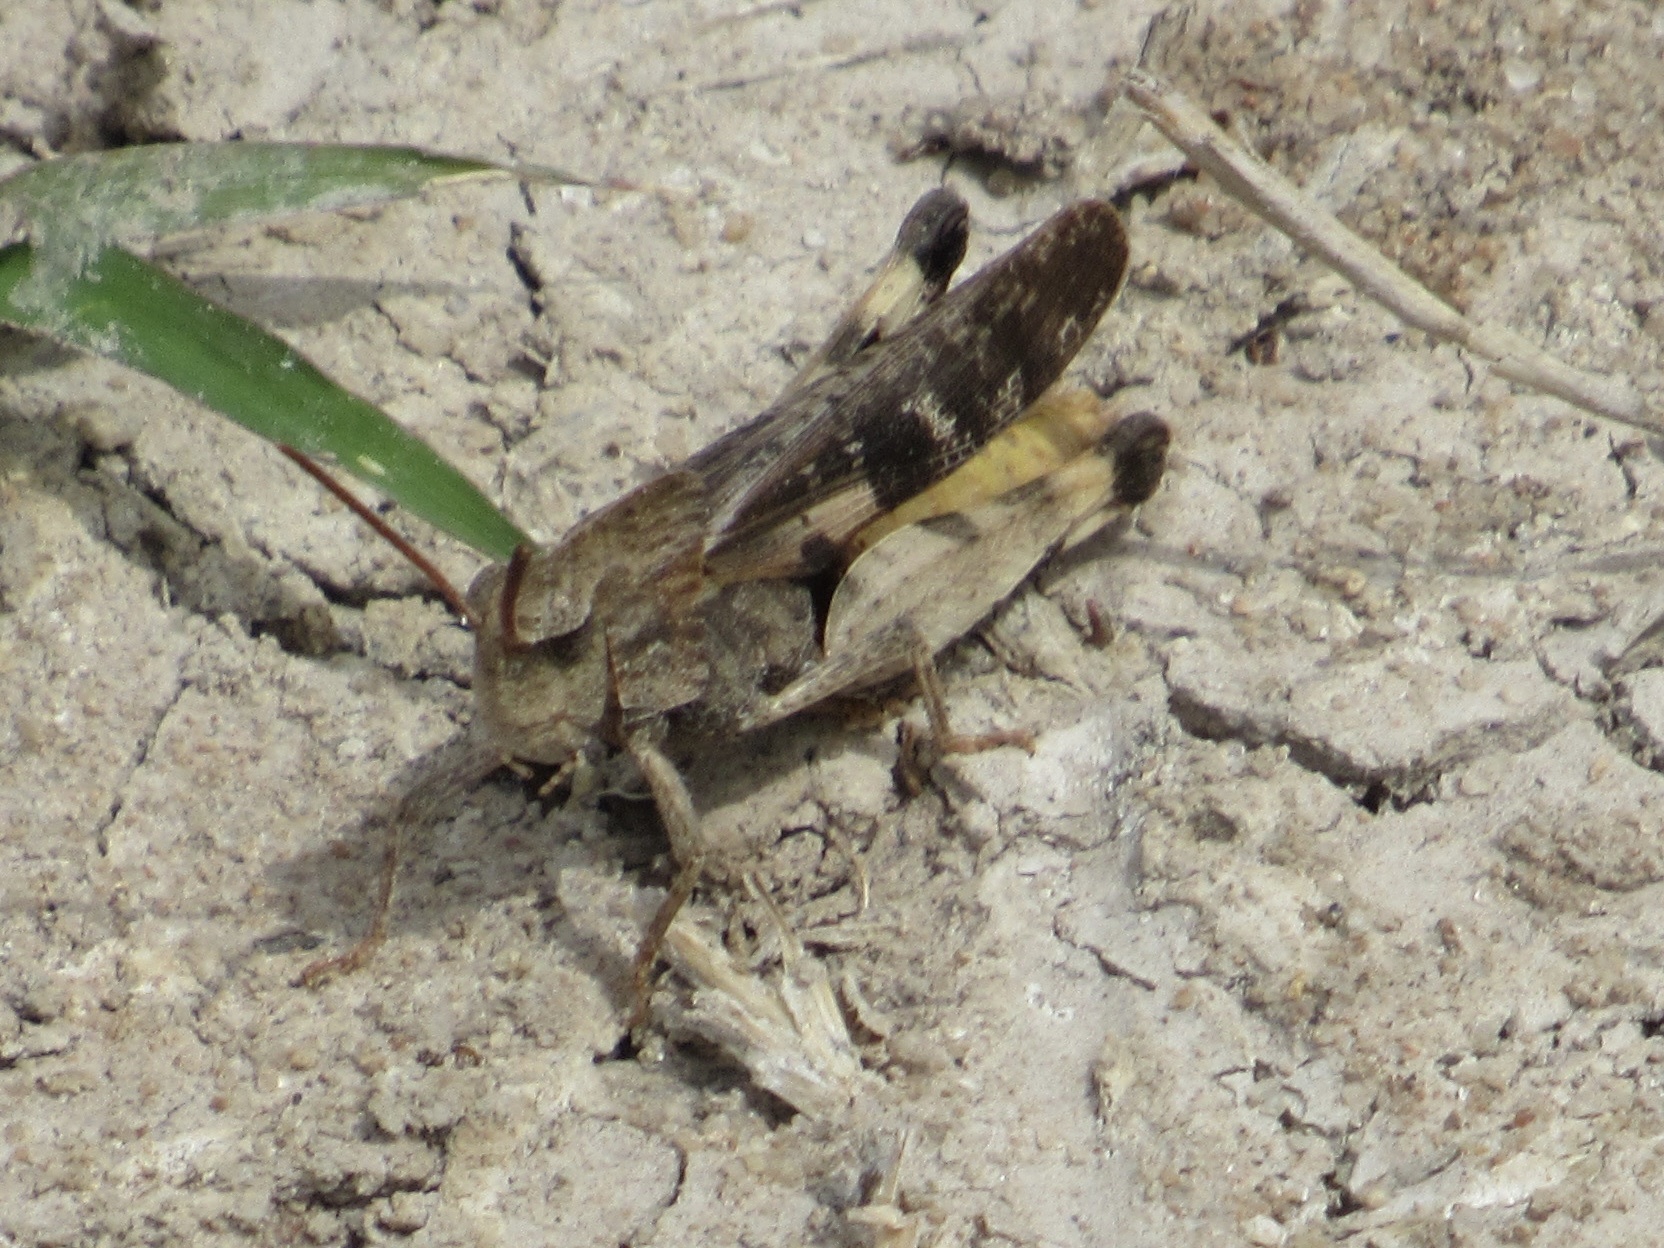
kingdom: Animalia
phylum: Arthropoda
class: Insecta
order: Orthoptera
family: Acrididae
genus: Chortophaga
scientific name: Chortophaga viridifasciata
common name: Green-striped grasshopper
